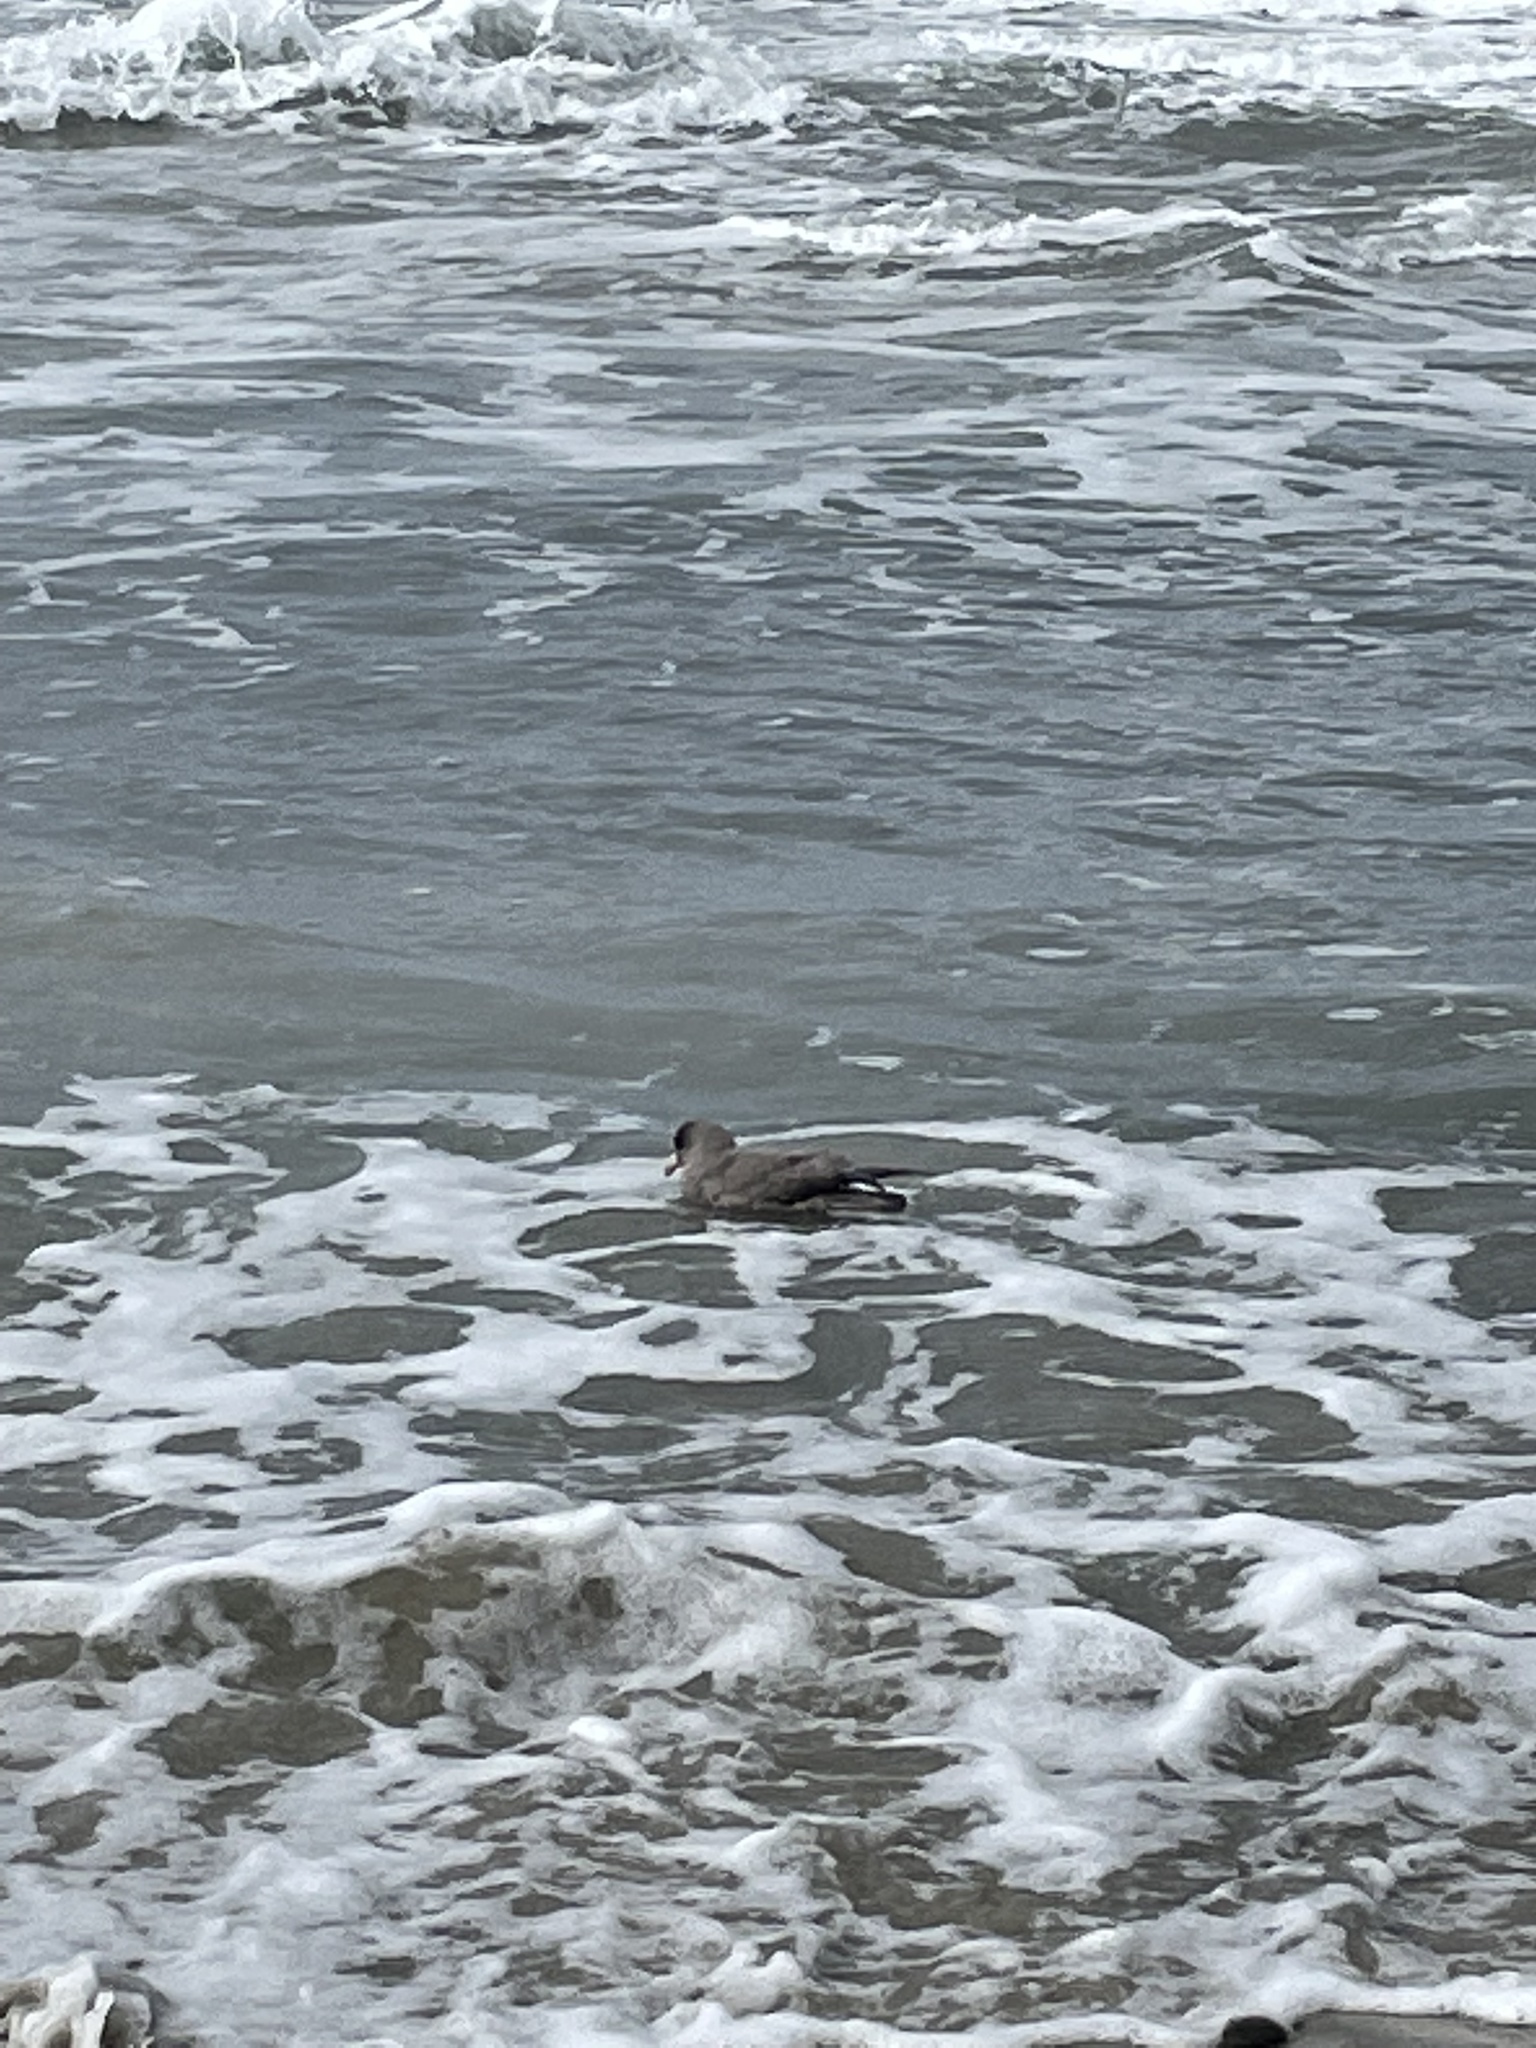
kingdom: Animalia
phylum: Chordata
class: Aves
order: Procellariiformes
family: Procellariidae
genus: Fulmarus
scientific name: Fulmarus glacialis
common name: Northern fulmar
